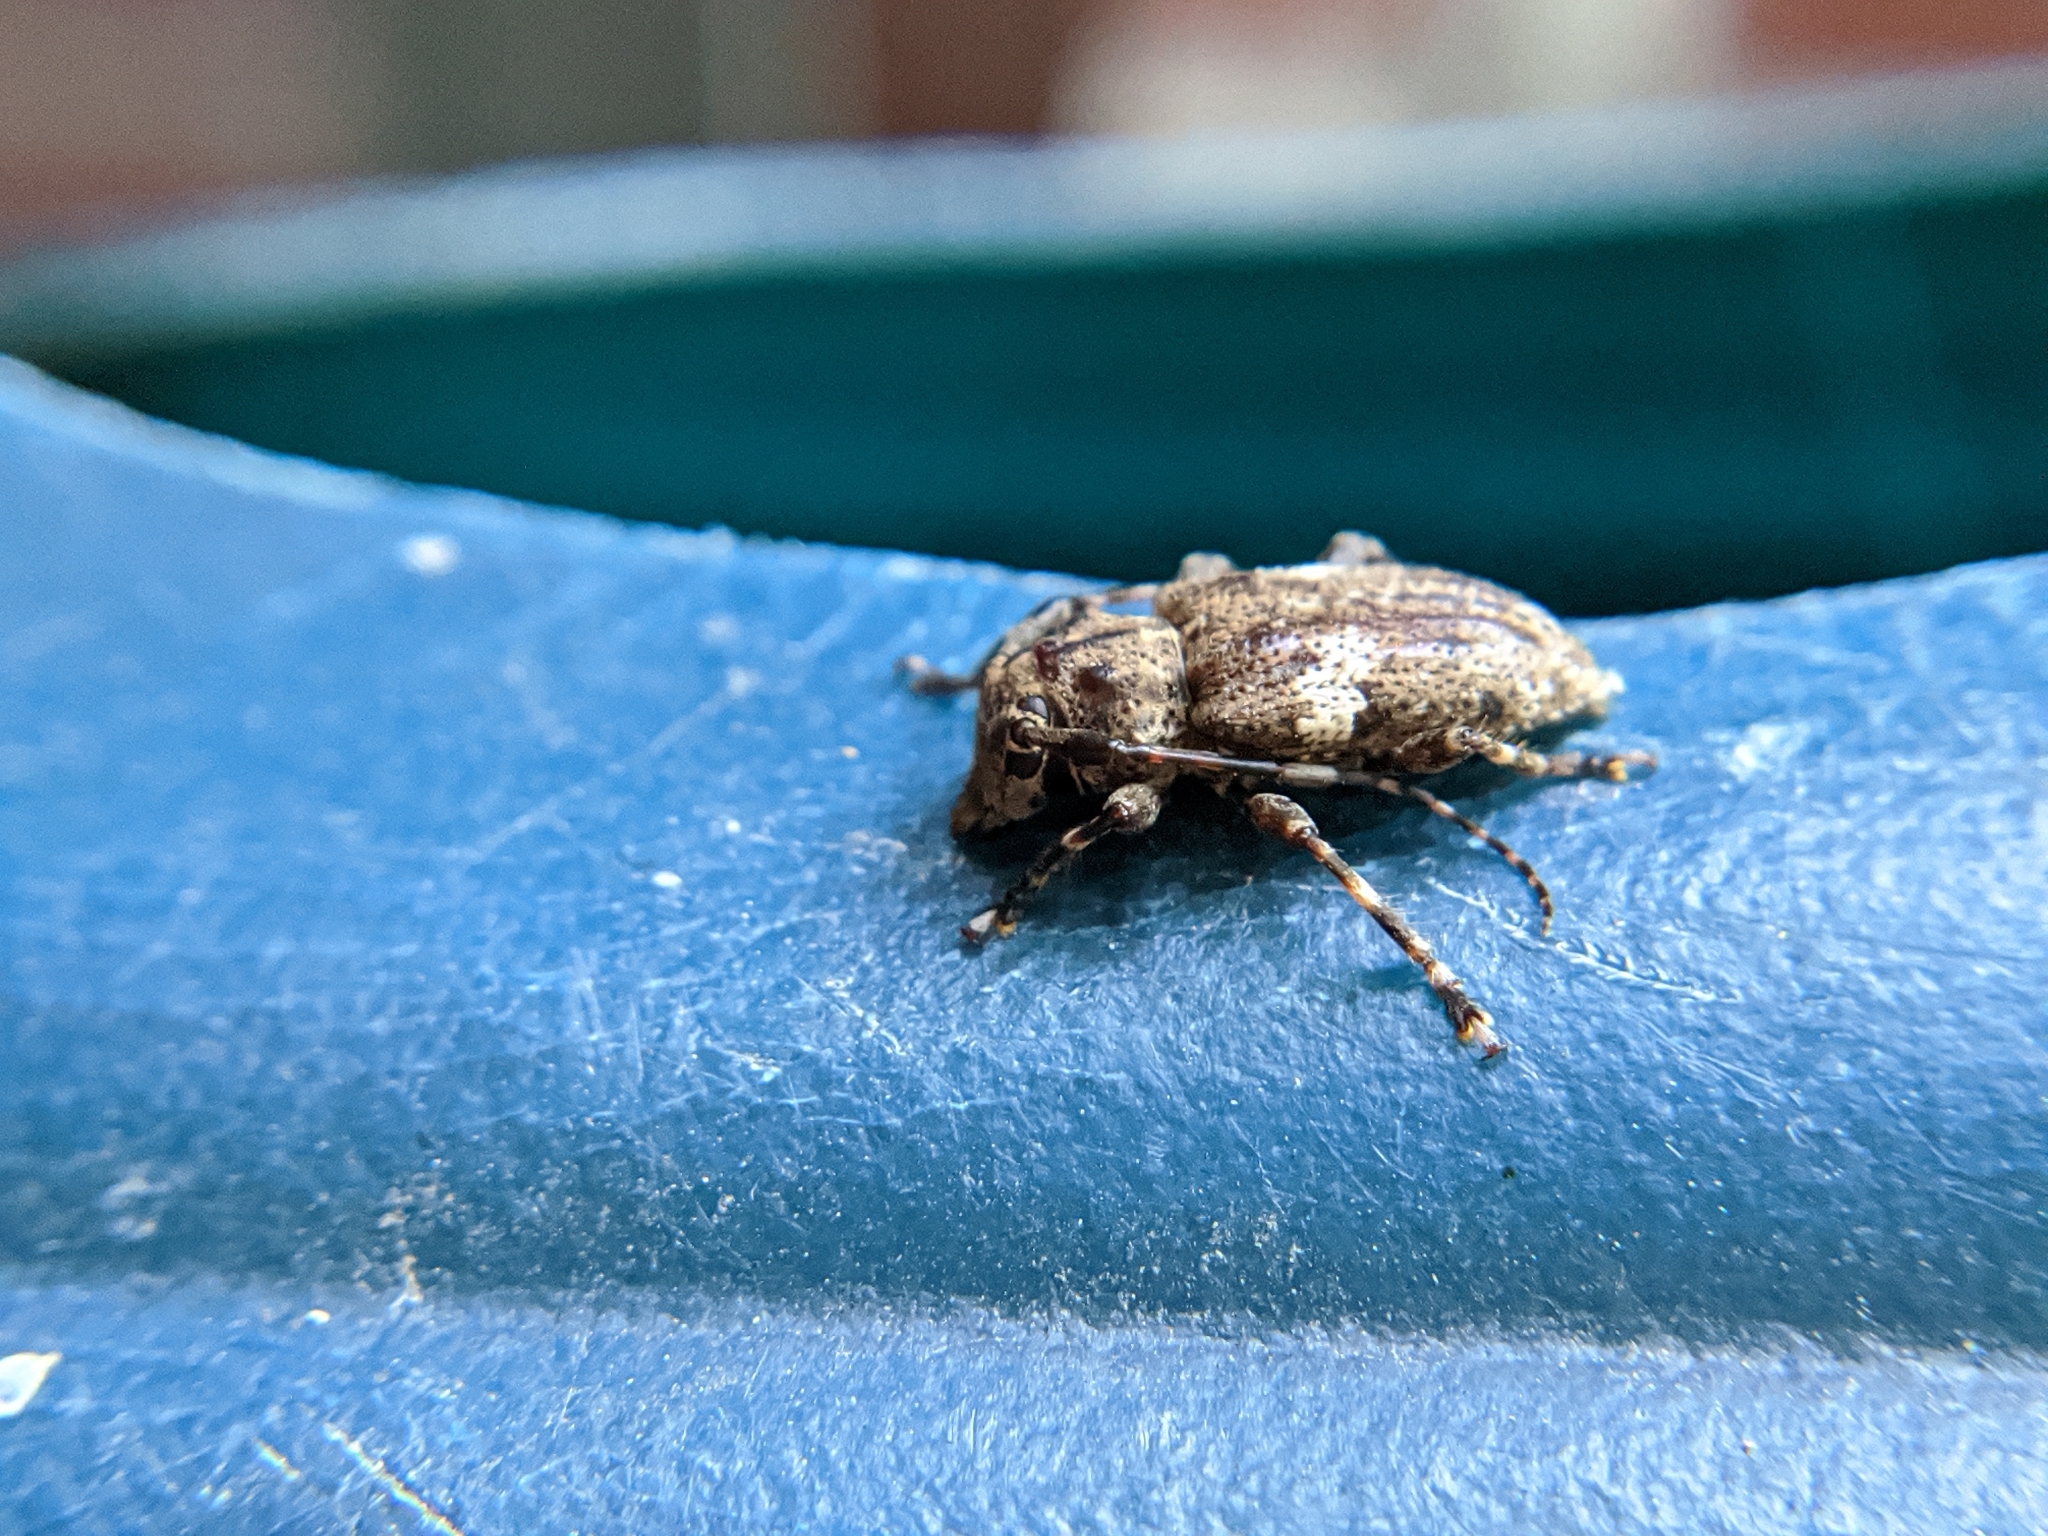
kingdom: Animalia
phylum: Arthropoda
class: Insecta
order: Coleoptera
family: Cerambycidae
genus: Acanthoderes
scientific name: Acanthoderes quadrigibba
